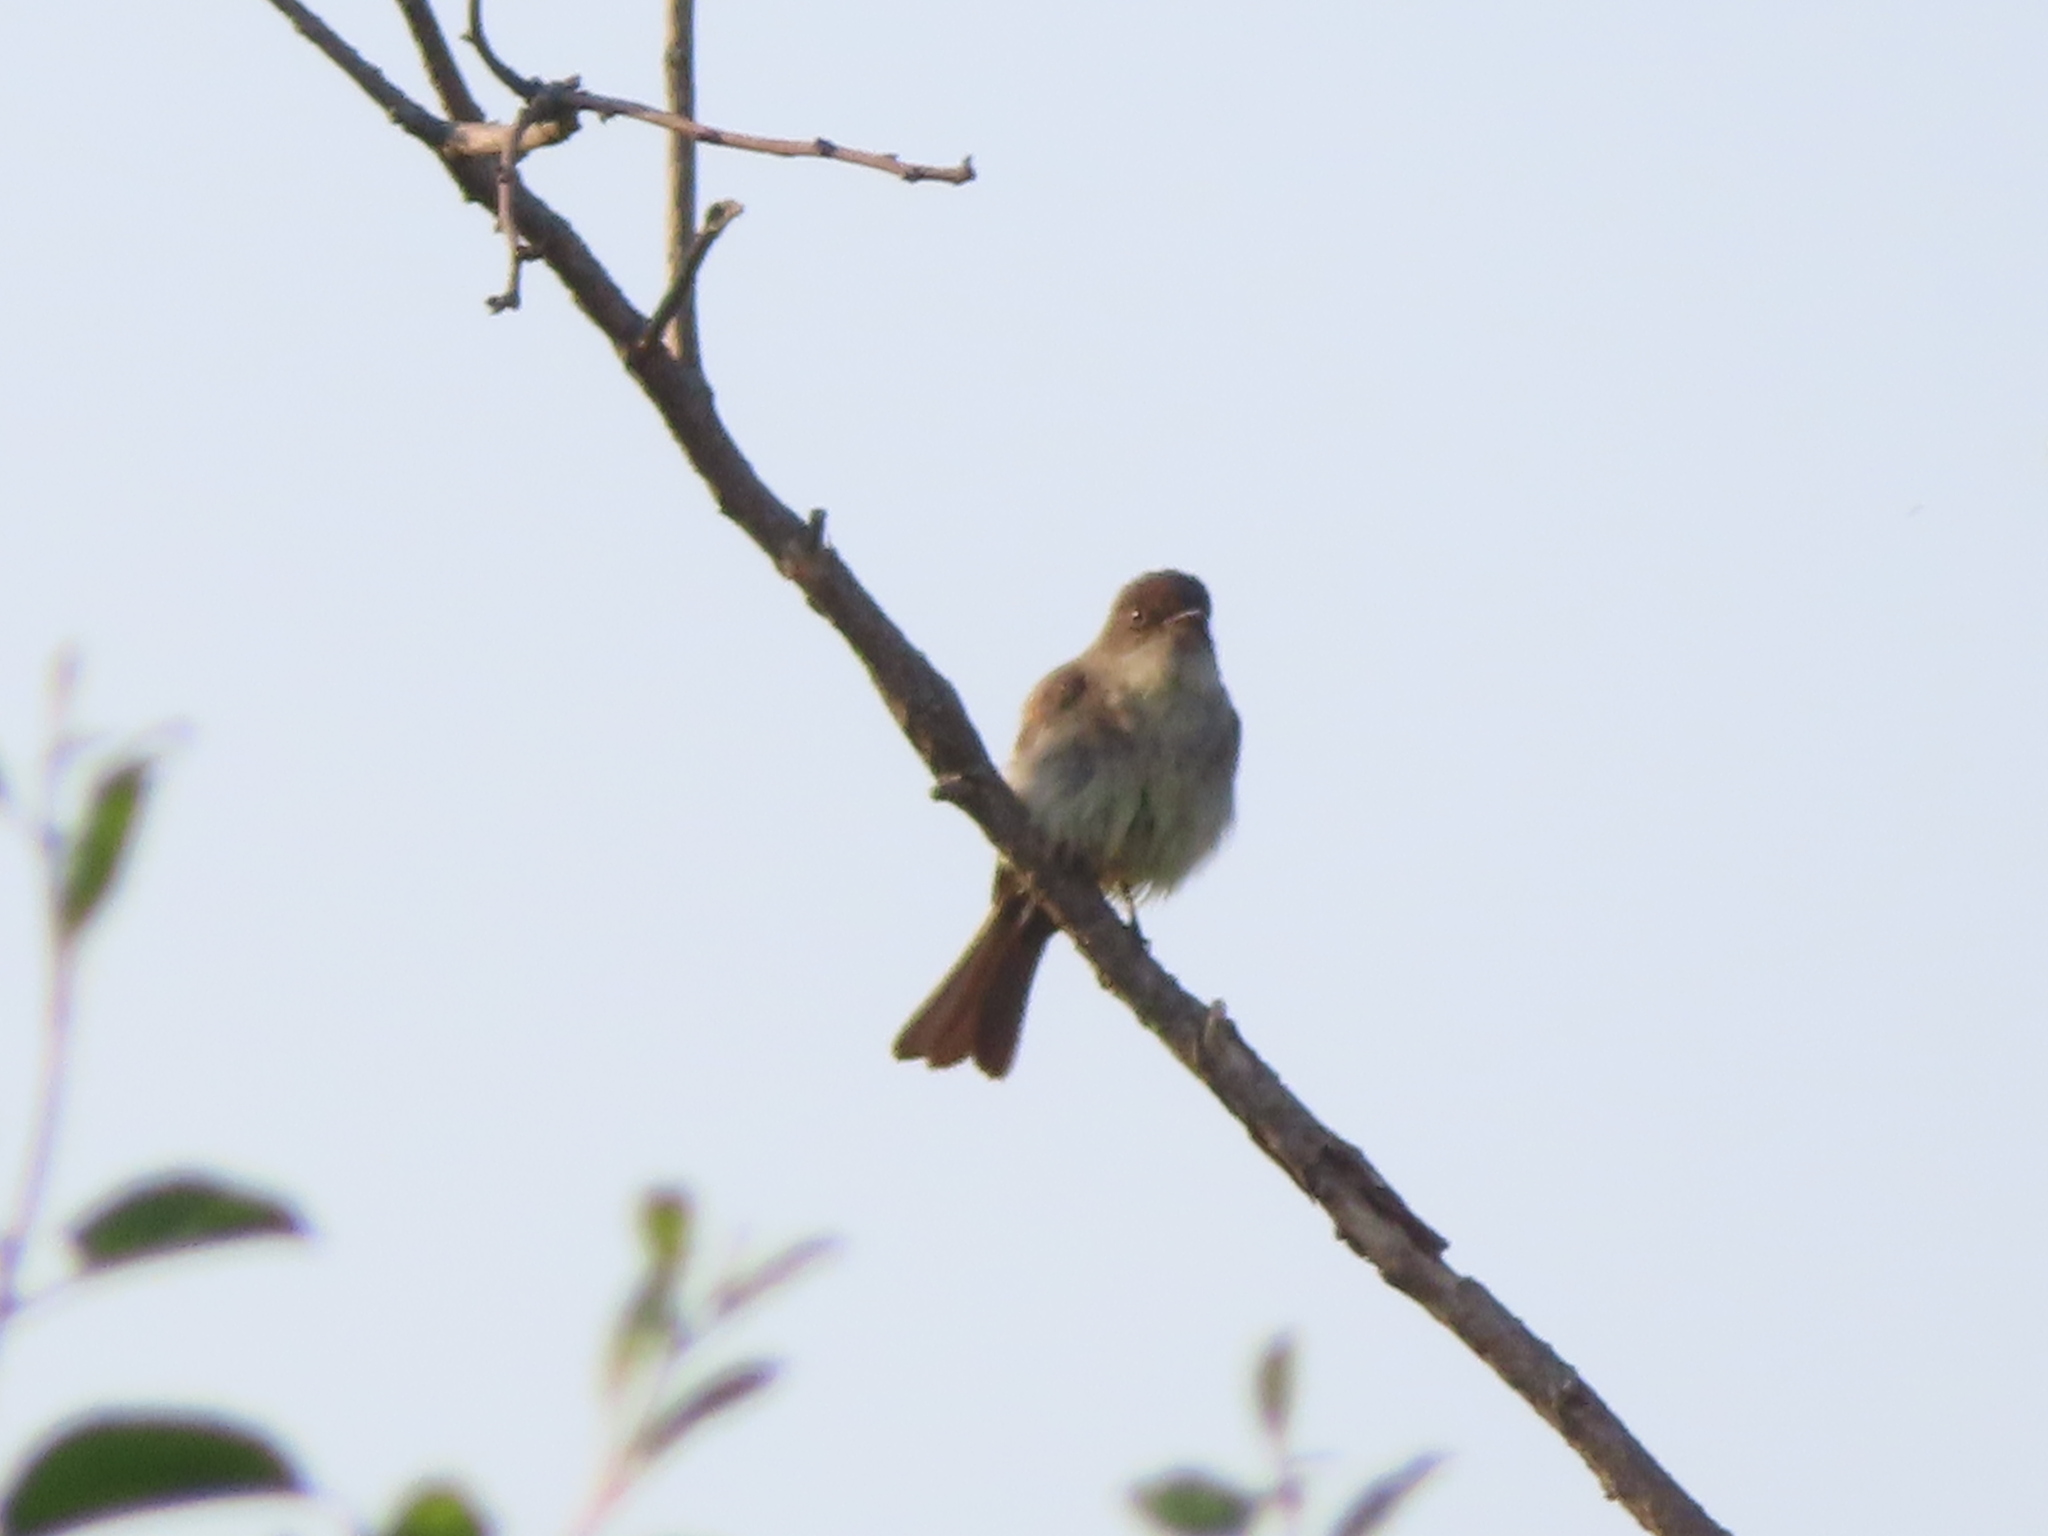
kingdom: Animalia
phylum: Chordata
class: Aves
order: Passeriformes
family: Tyrannidae
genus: Sayornis
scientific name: Sayornis phoebe
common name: Eastern phoebe
